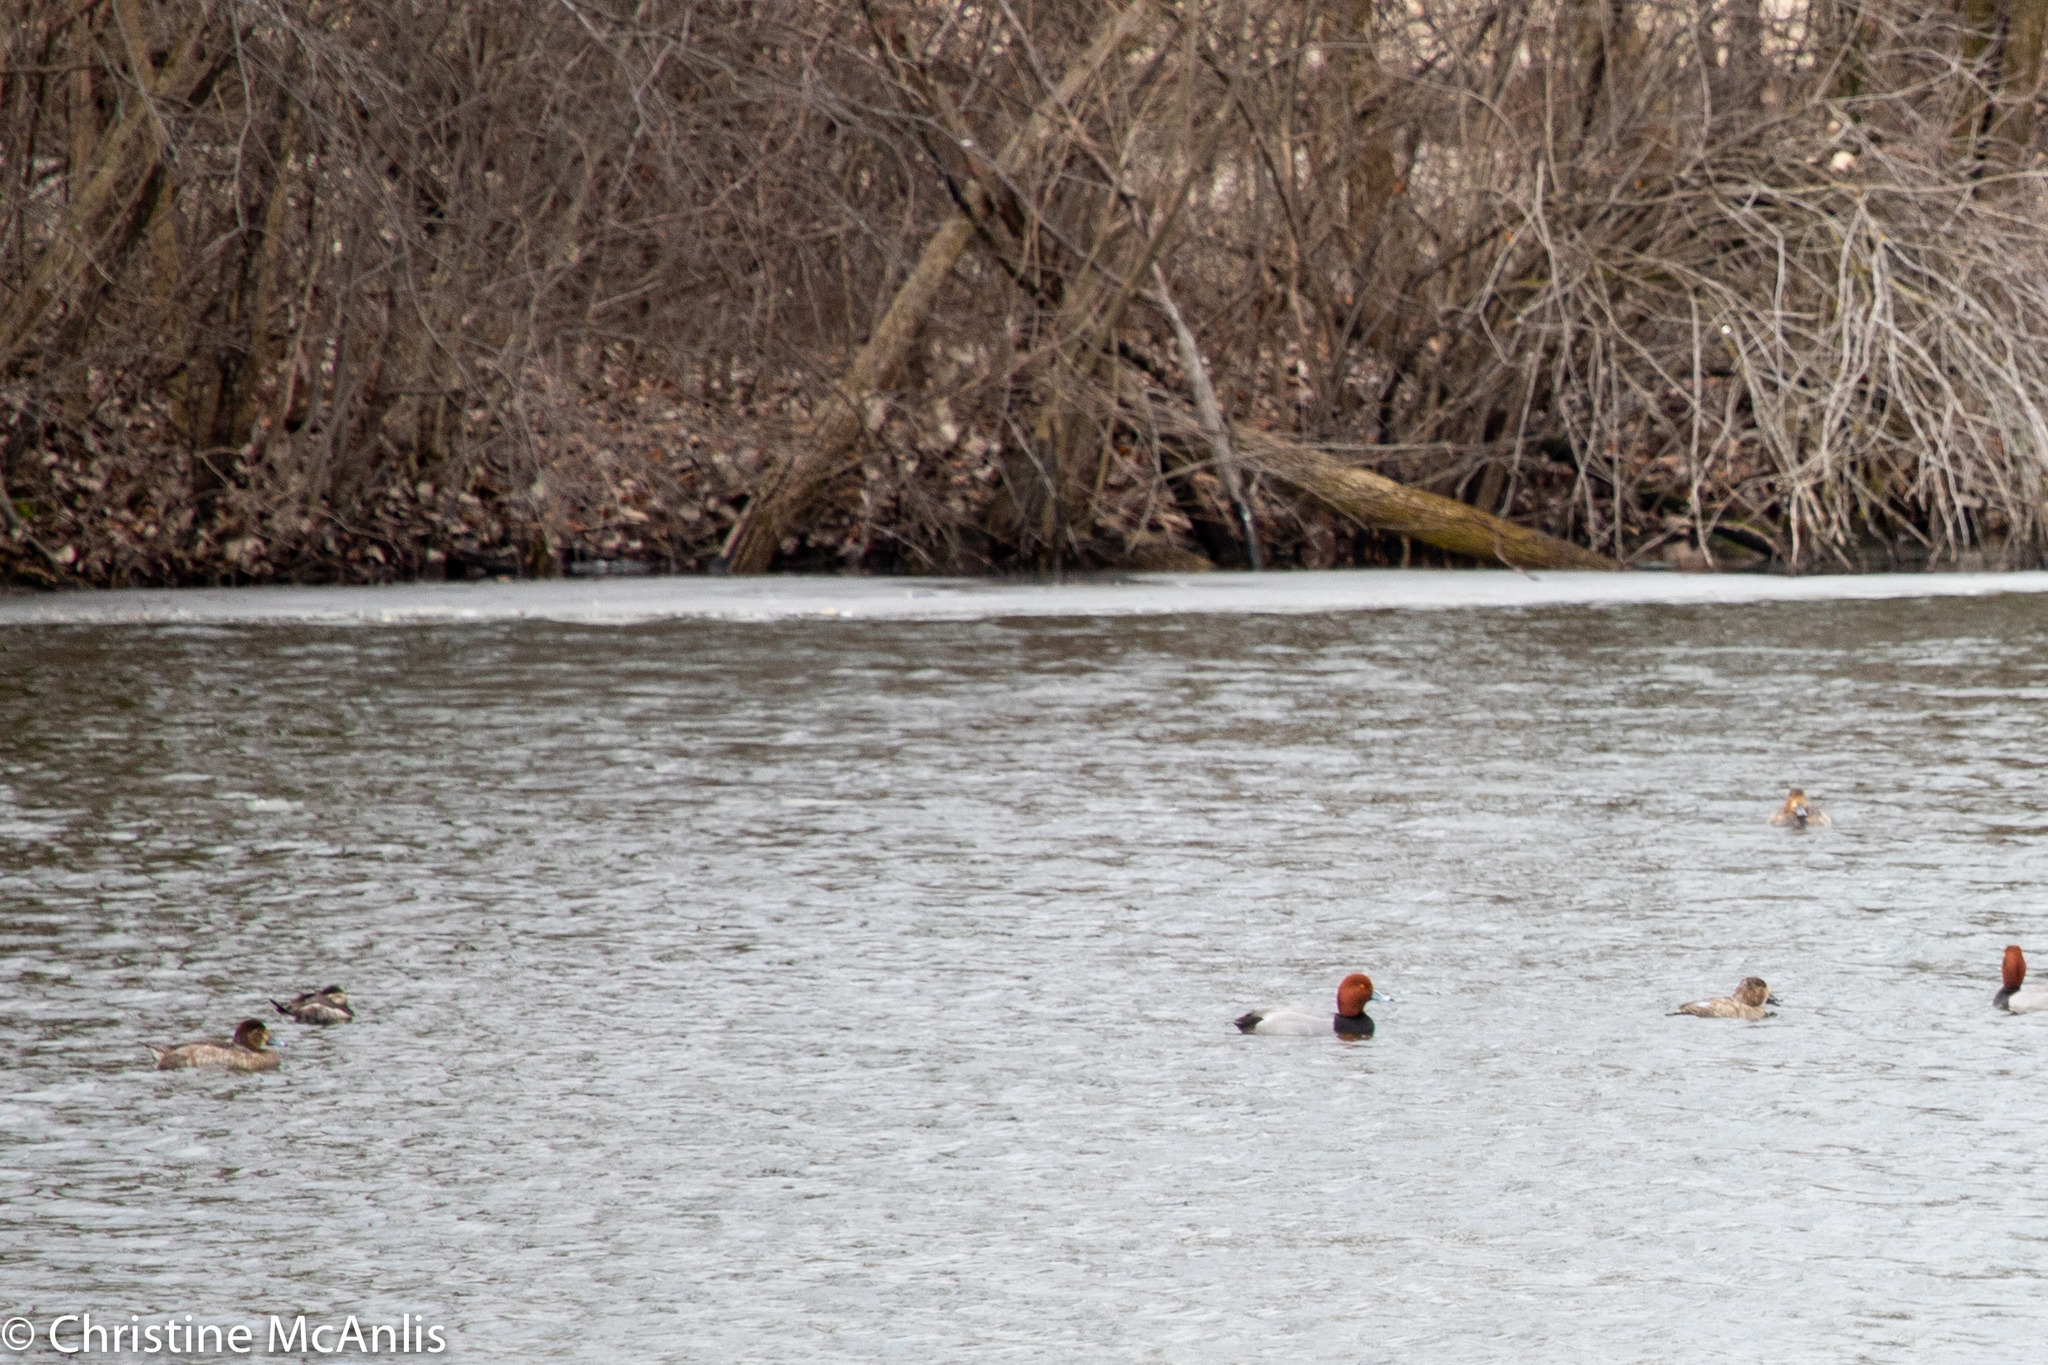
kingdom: Animalia
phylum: Chordata
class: Aves
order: Anseriformes
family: Anatidae
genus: Oxyura
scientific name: Oxyura jamaicensis
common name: Ruddy duck
